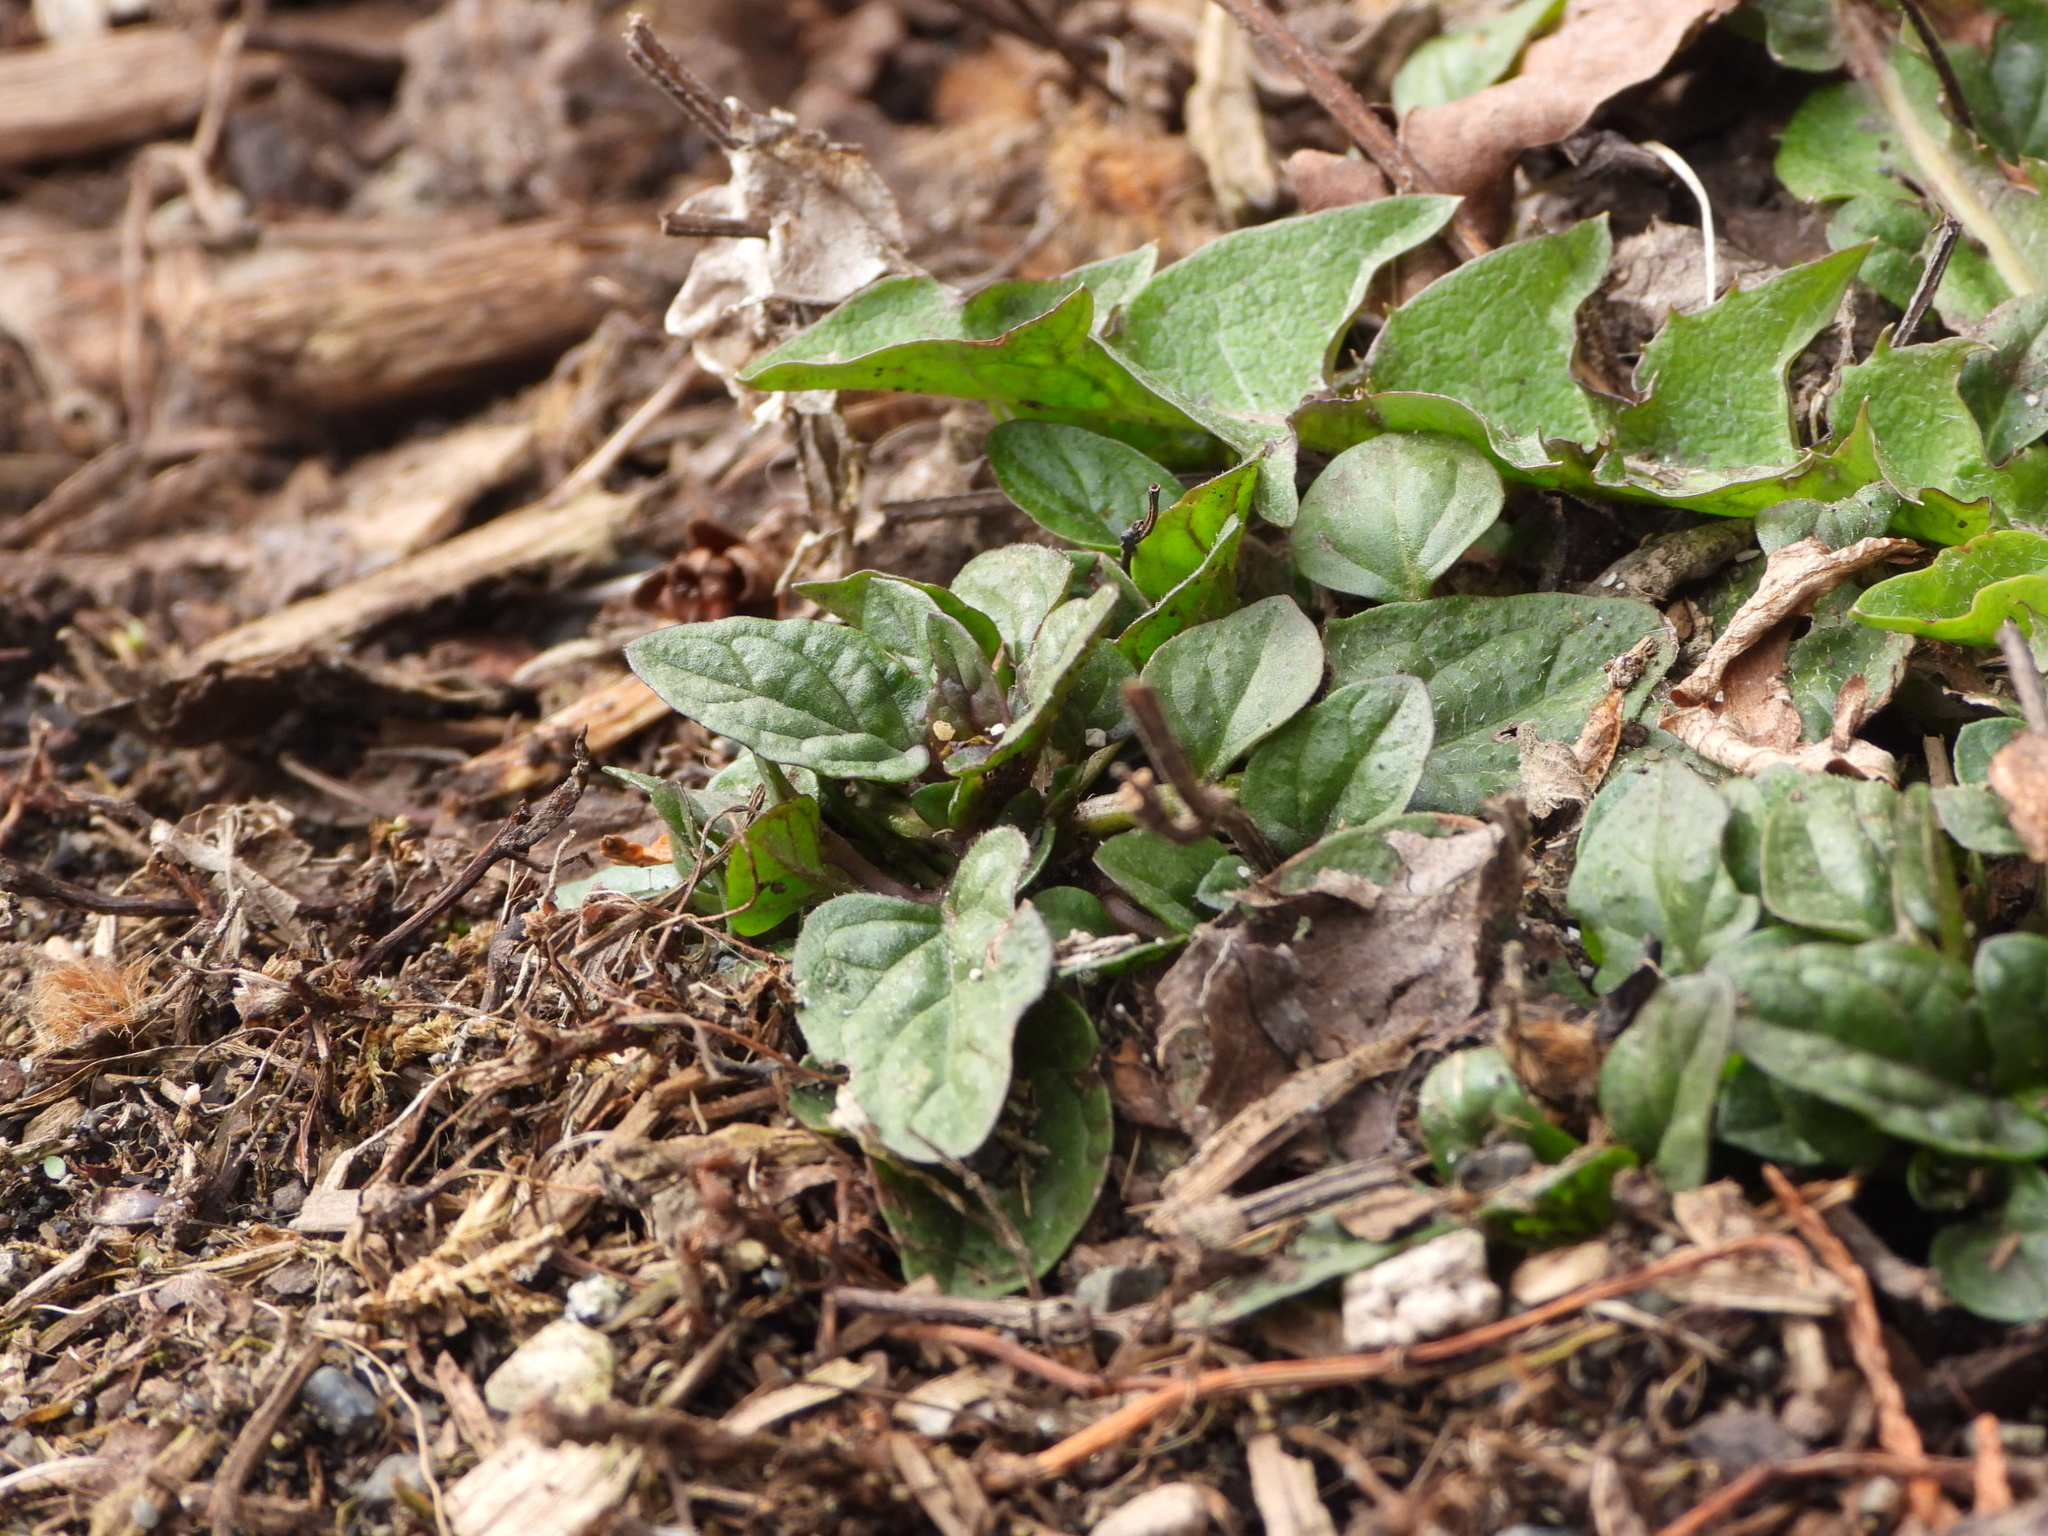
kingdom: Plantae
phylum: Tracheophyta
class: Magnoliopsida
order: Lamiales
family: Lamiaceae
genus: Prunella
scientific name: Prunella vulgaris
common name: Heal-all
